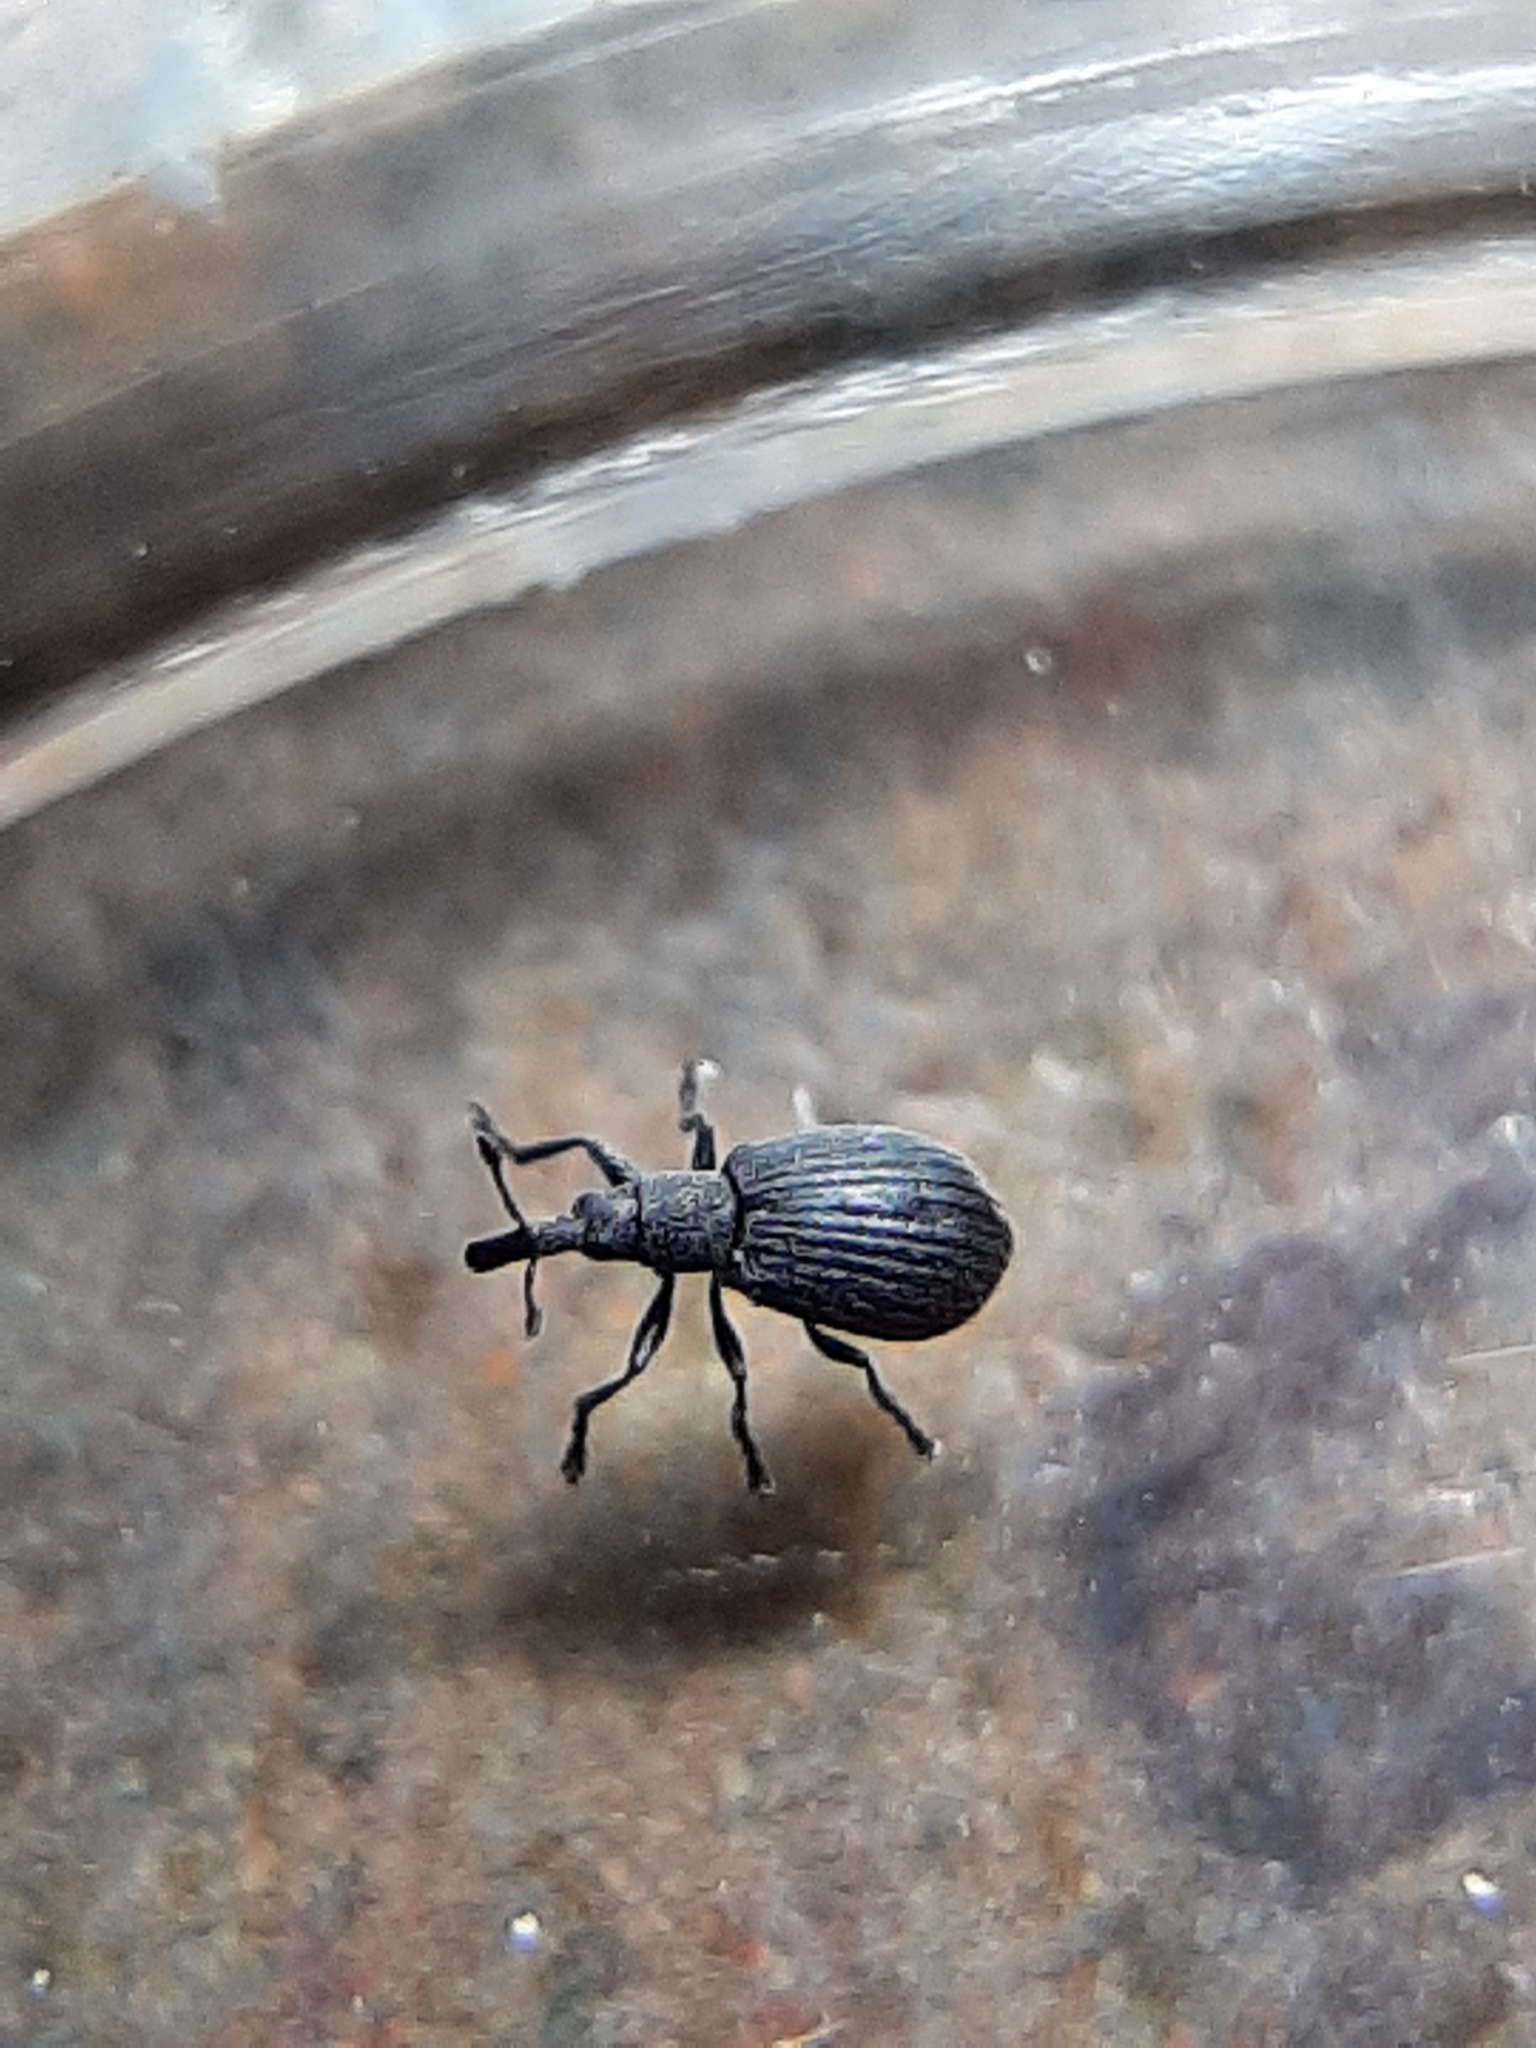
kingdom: Animalia
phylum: Arthropoda
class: Insecta
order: Coleoptera
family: Brentidae
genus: Perapion
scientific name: Perapion curtirostre
